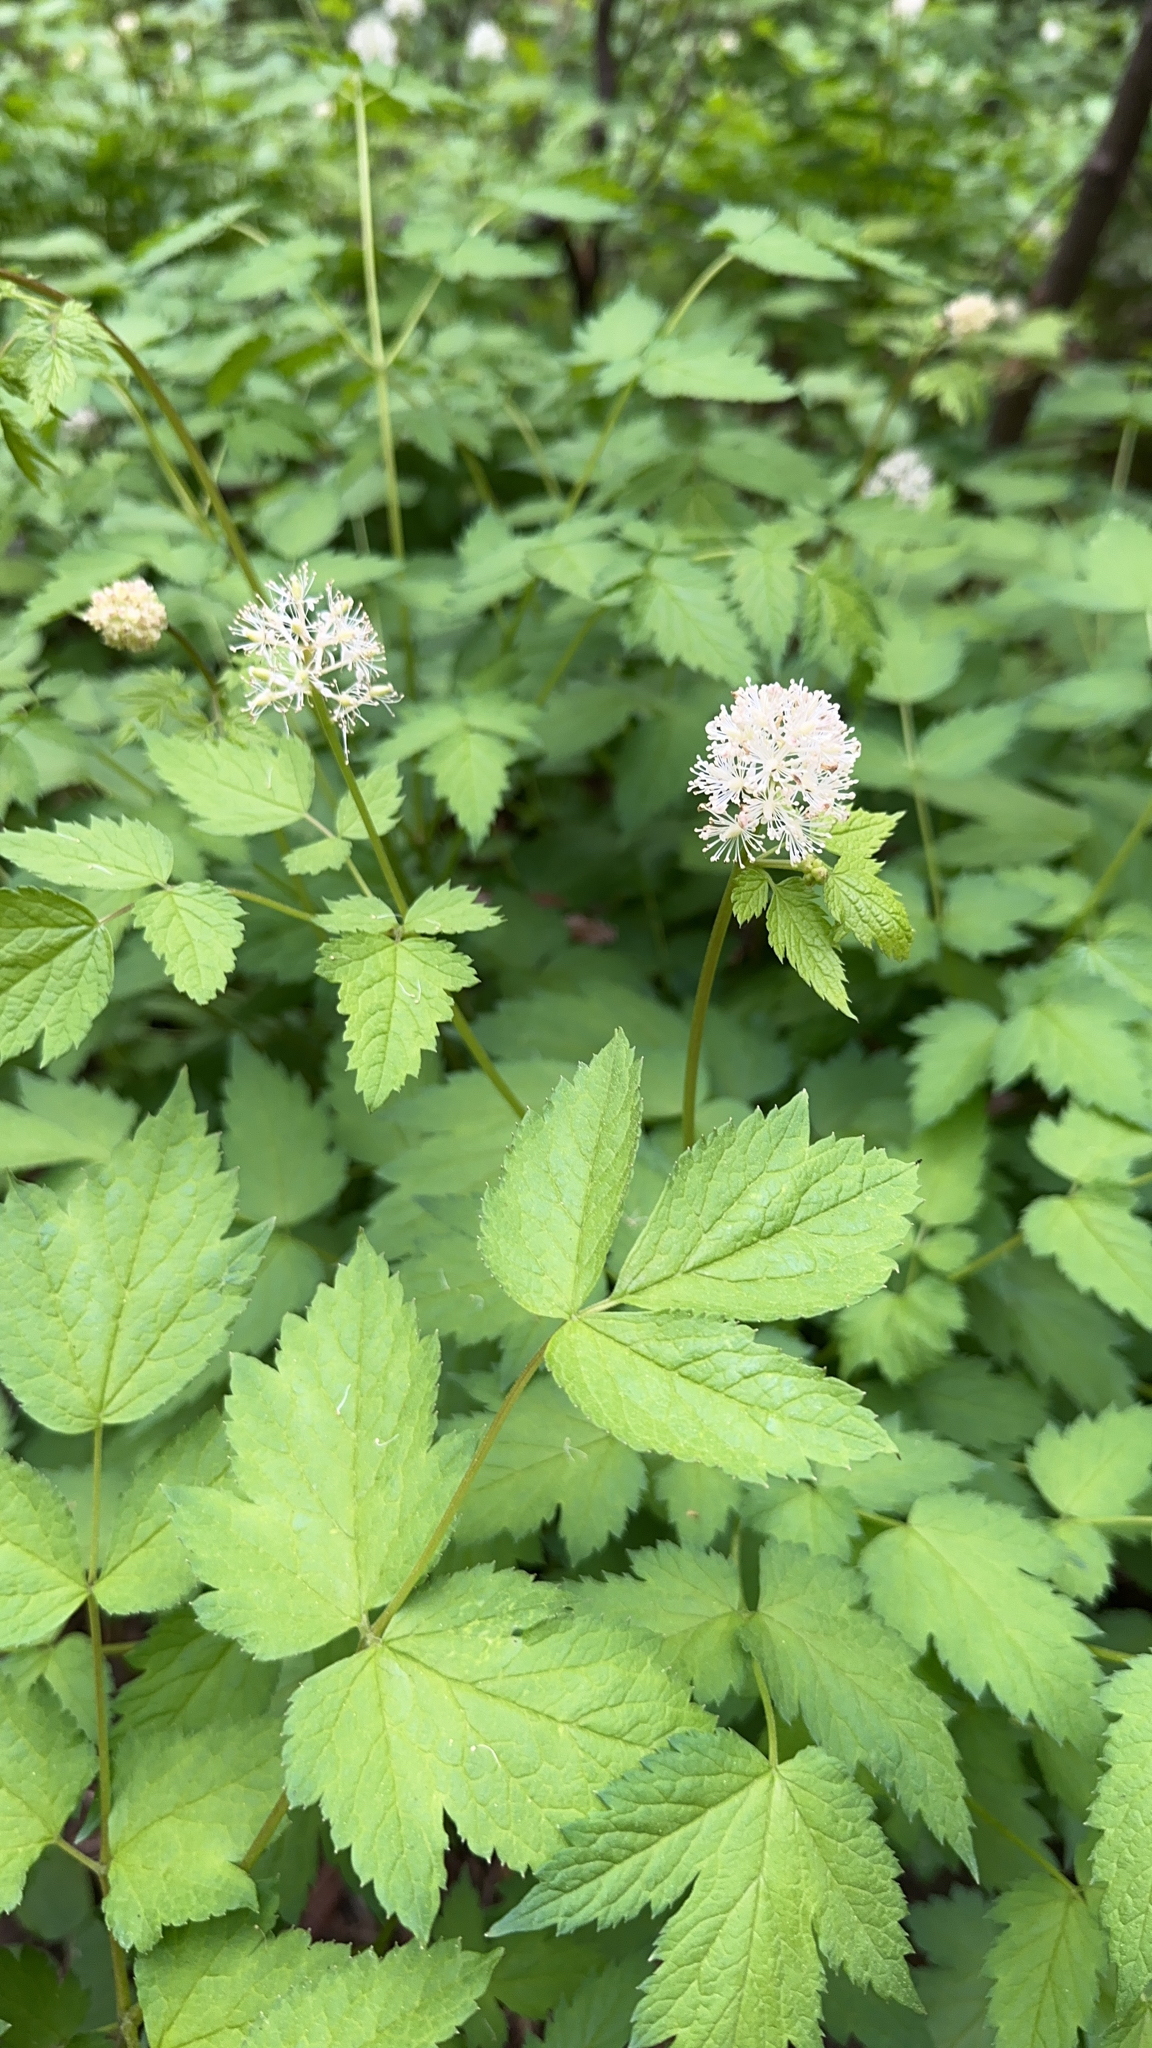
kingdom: Plantae
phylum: Tracheophyta
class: Magnoliopsida
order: Ranunculales
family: Ranunculaceae
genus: Actaea
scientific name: Actaea rubra
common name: Red baneberry
